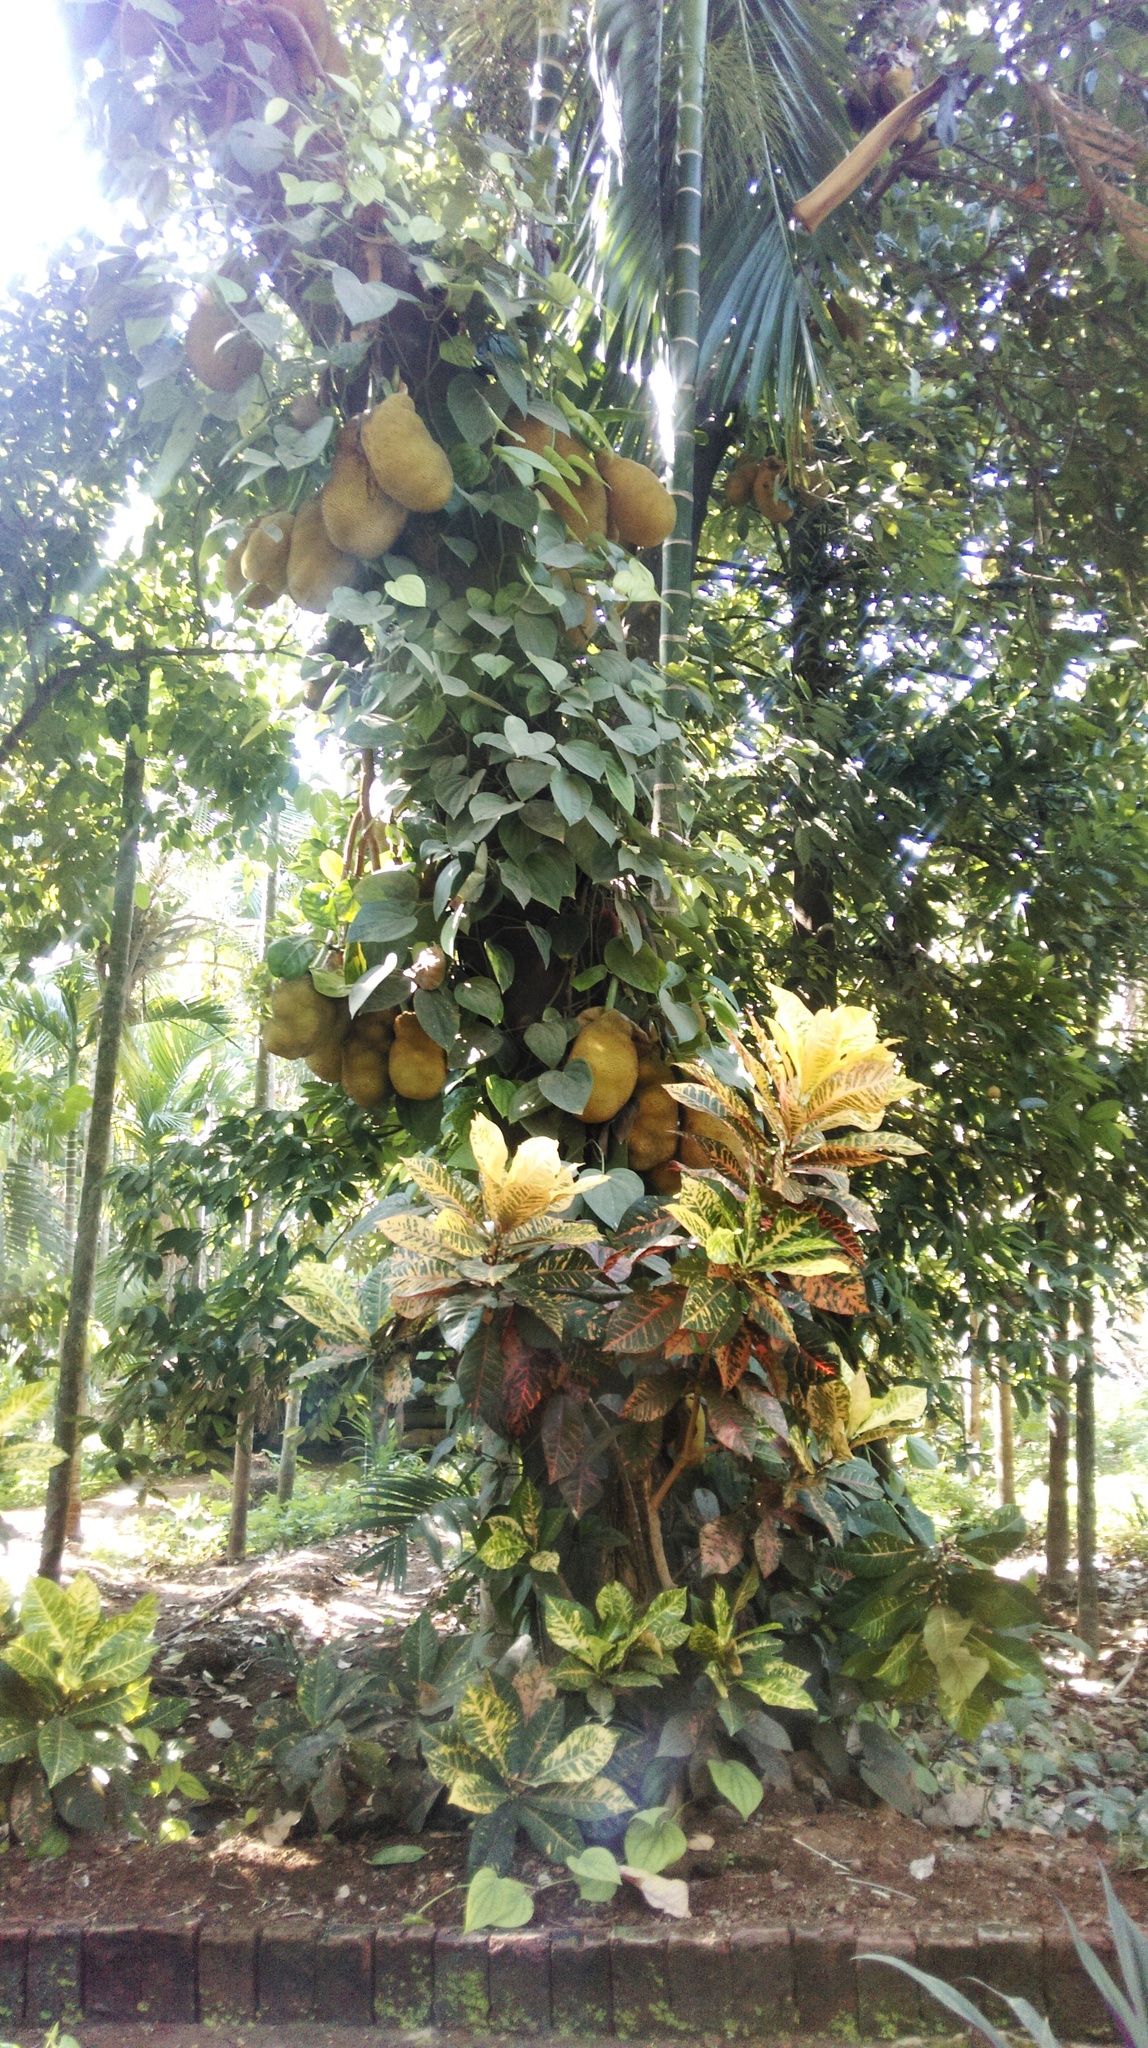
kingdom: Plantae
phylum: Tracheophyta
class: Magnoliopsida
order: Rosales
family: Moraceae
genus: Artocarpus
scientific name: Artocarpus heterophyllus
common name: Jackfruit
